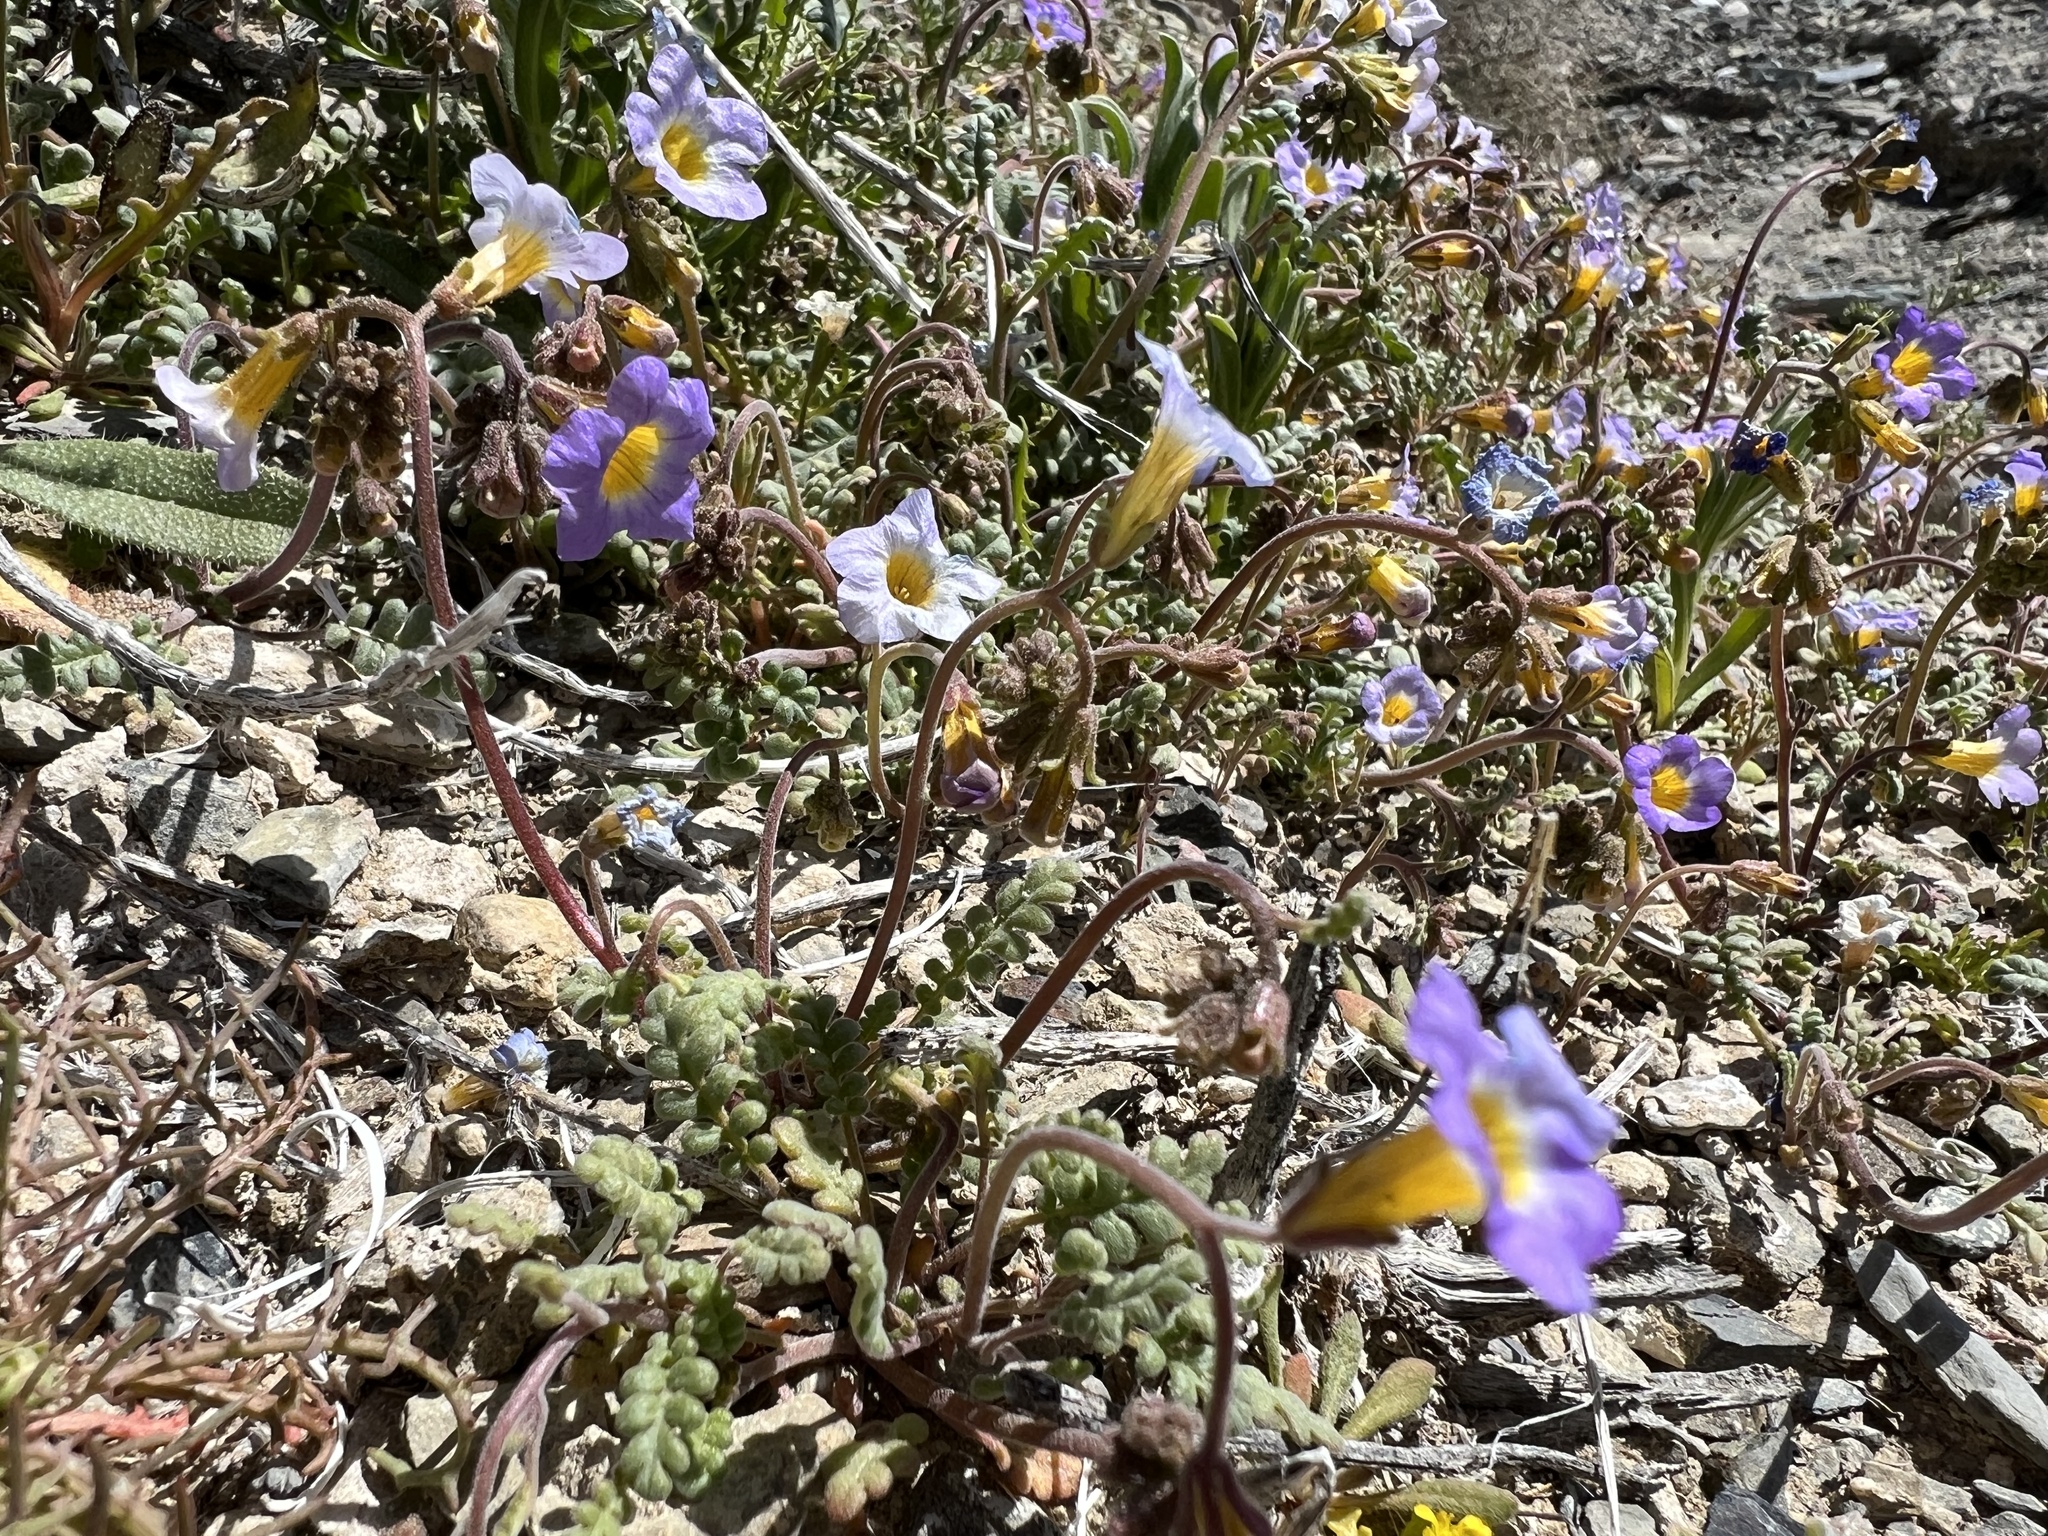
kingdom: Plantae
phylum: Tracheophyta
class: Magnoliopsida
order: Boraginales
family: Hydrophyllaceae
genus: Phacelia
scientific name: Phacelia fremontii
